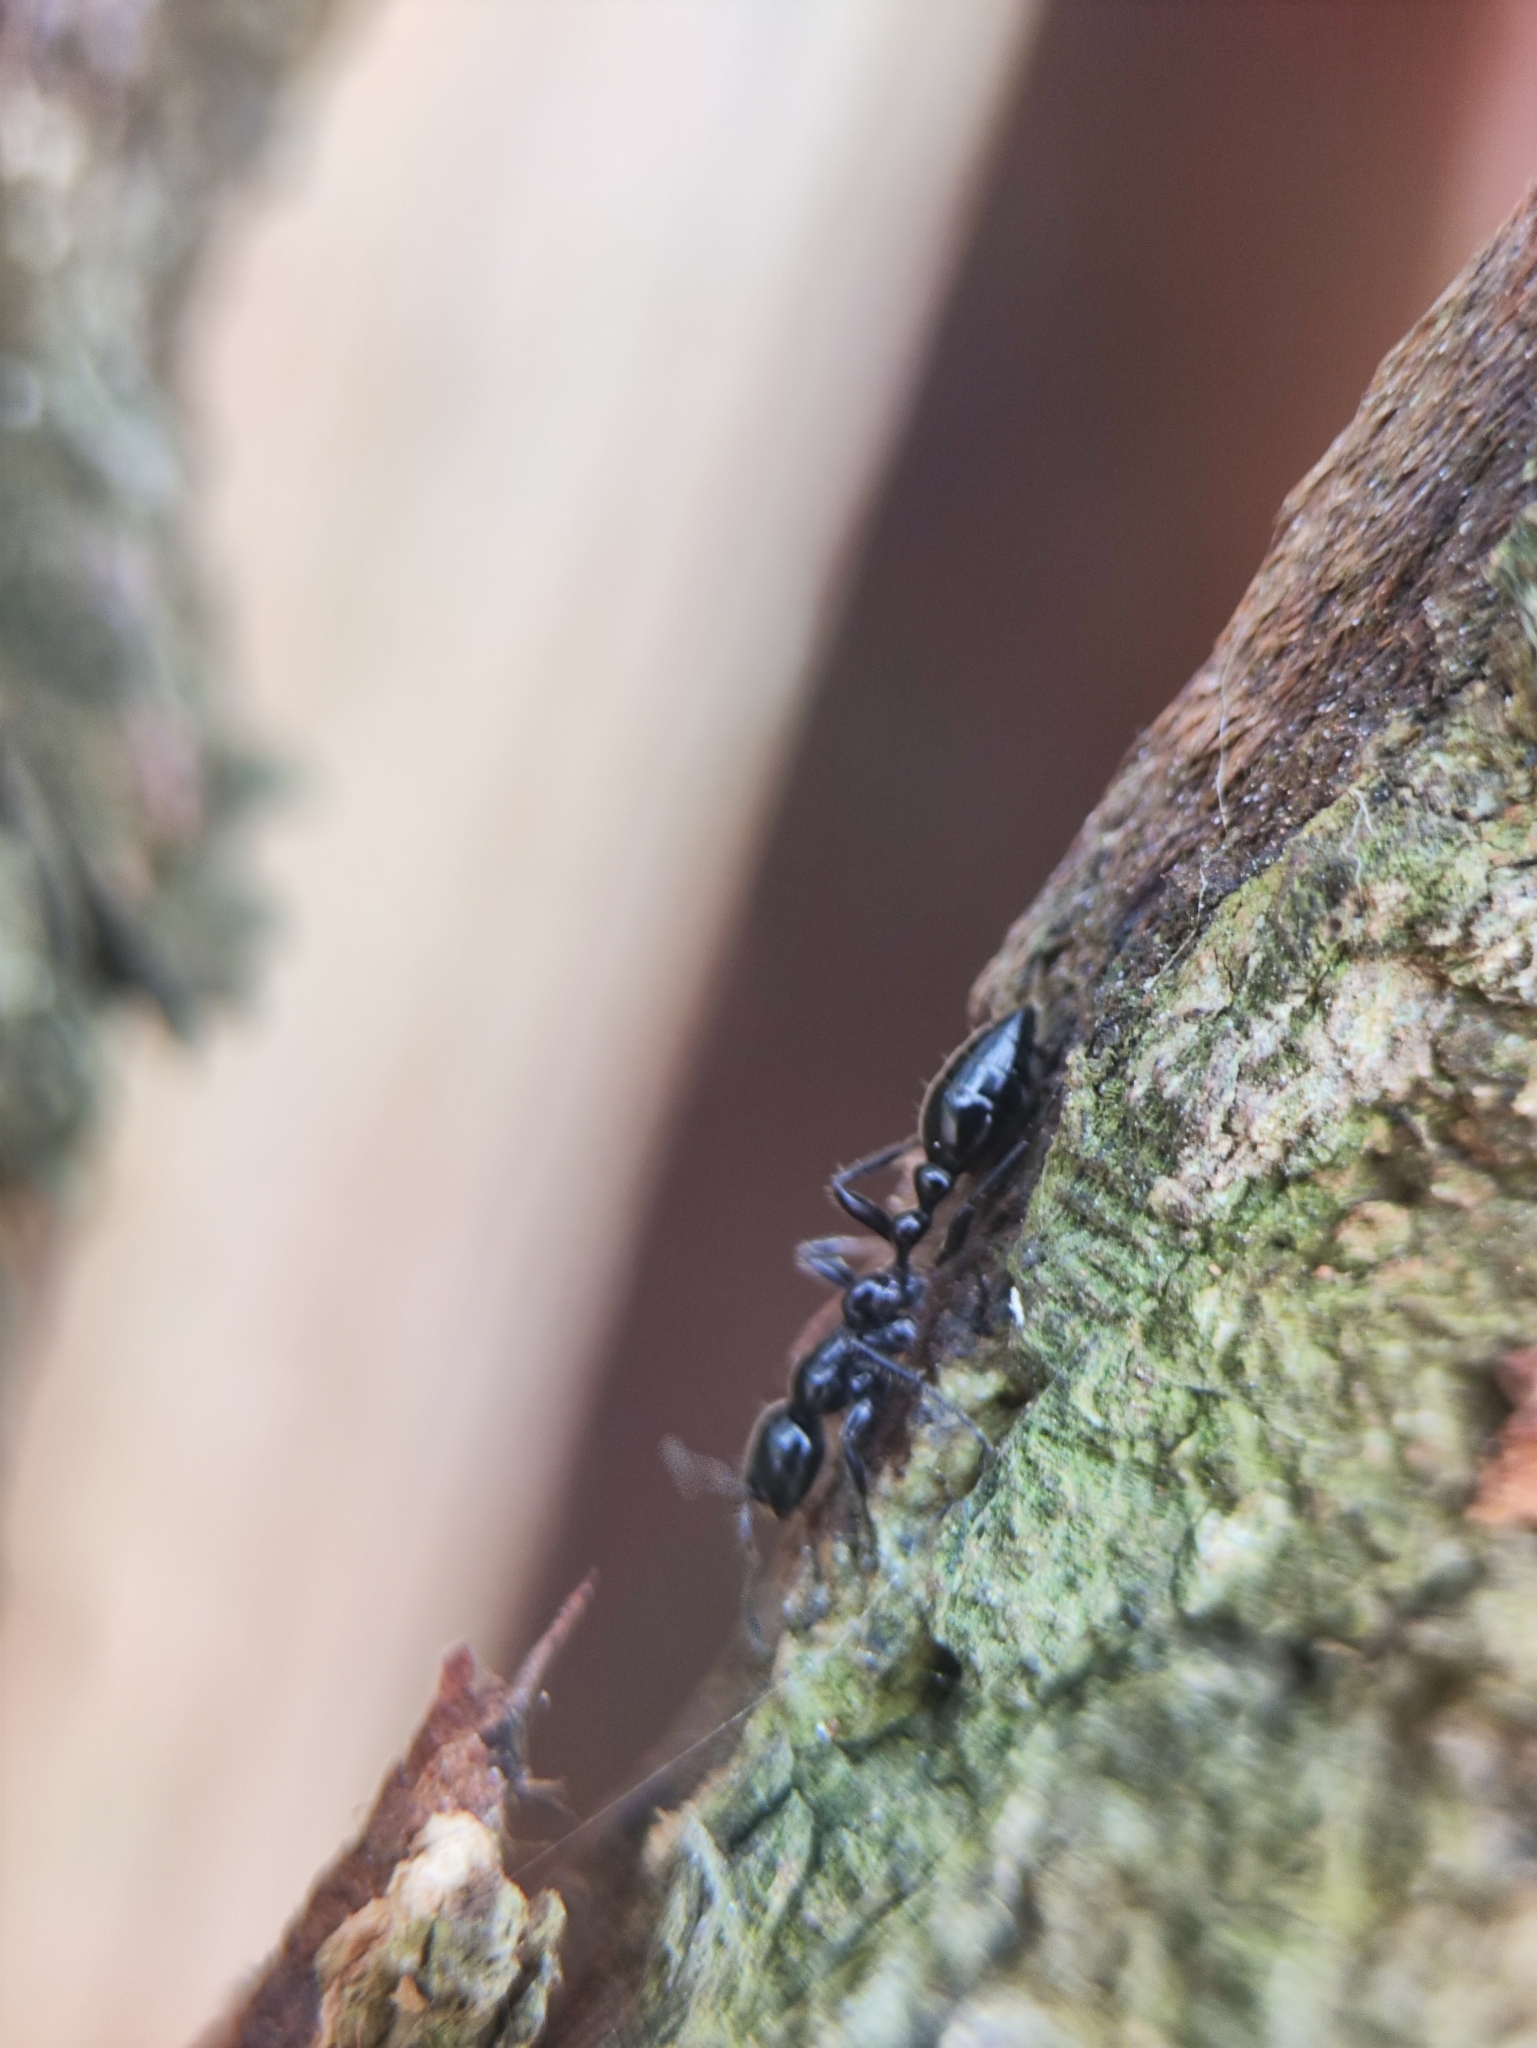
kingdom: Animalia
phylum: Arthropoda
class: Insecta
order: Hymenoptera
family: Formicidae
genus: Tetraponera
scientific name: Tetraponera nigra
